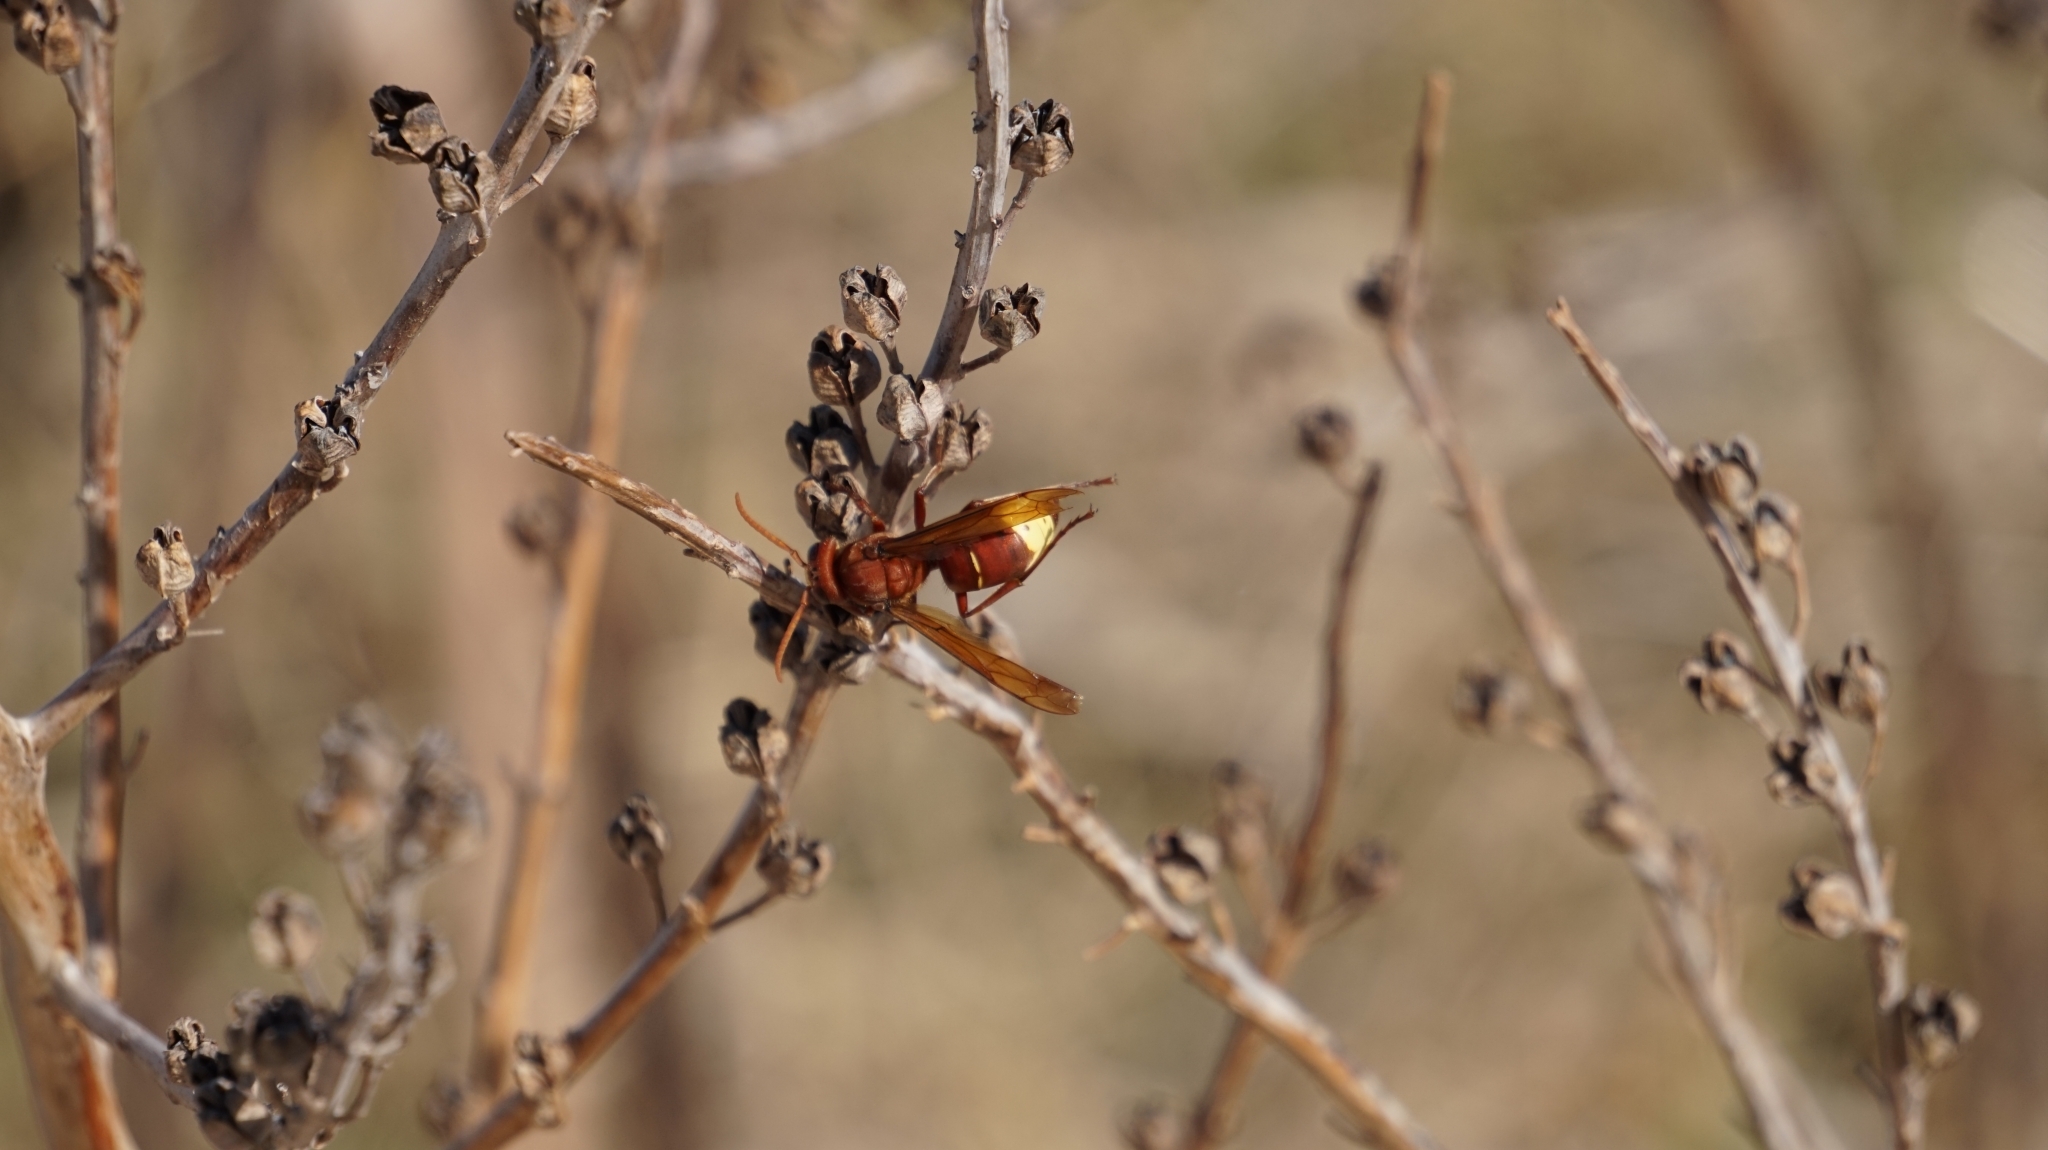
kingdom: Animalia
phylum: Arthropoda
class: Insecta
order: Hymenoptera
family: Vespidae
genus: Vespa
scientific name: Vespa orientalis
